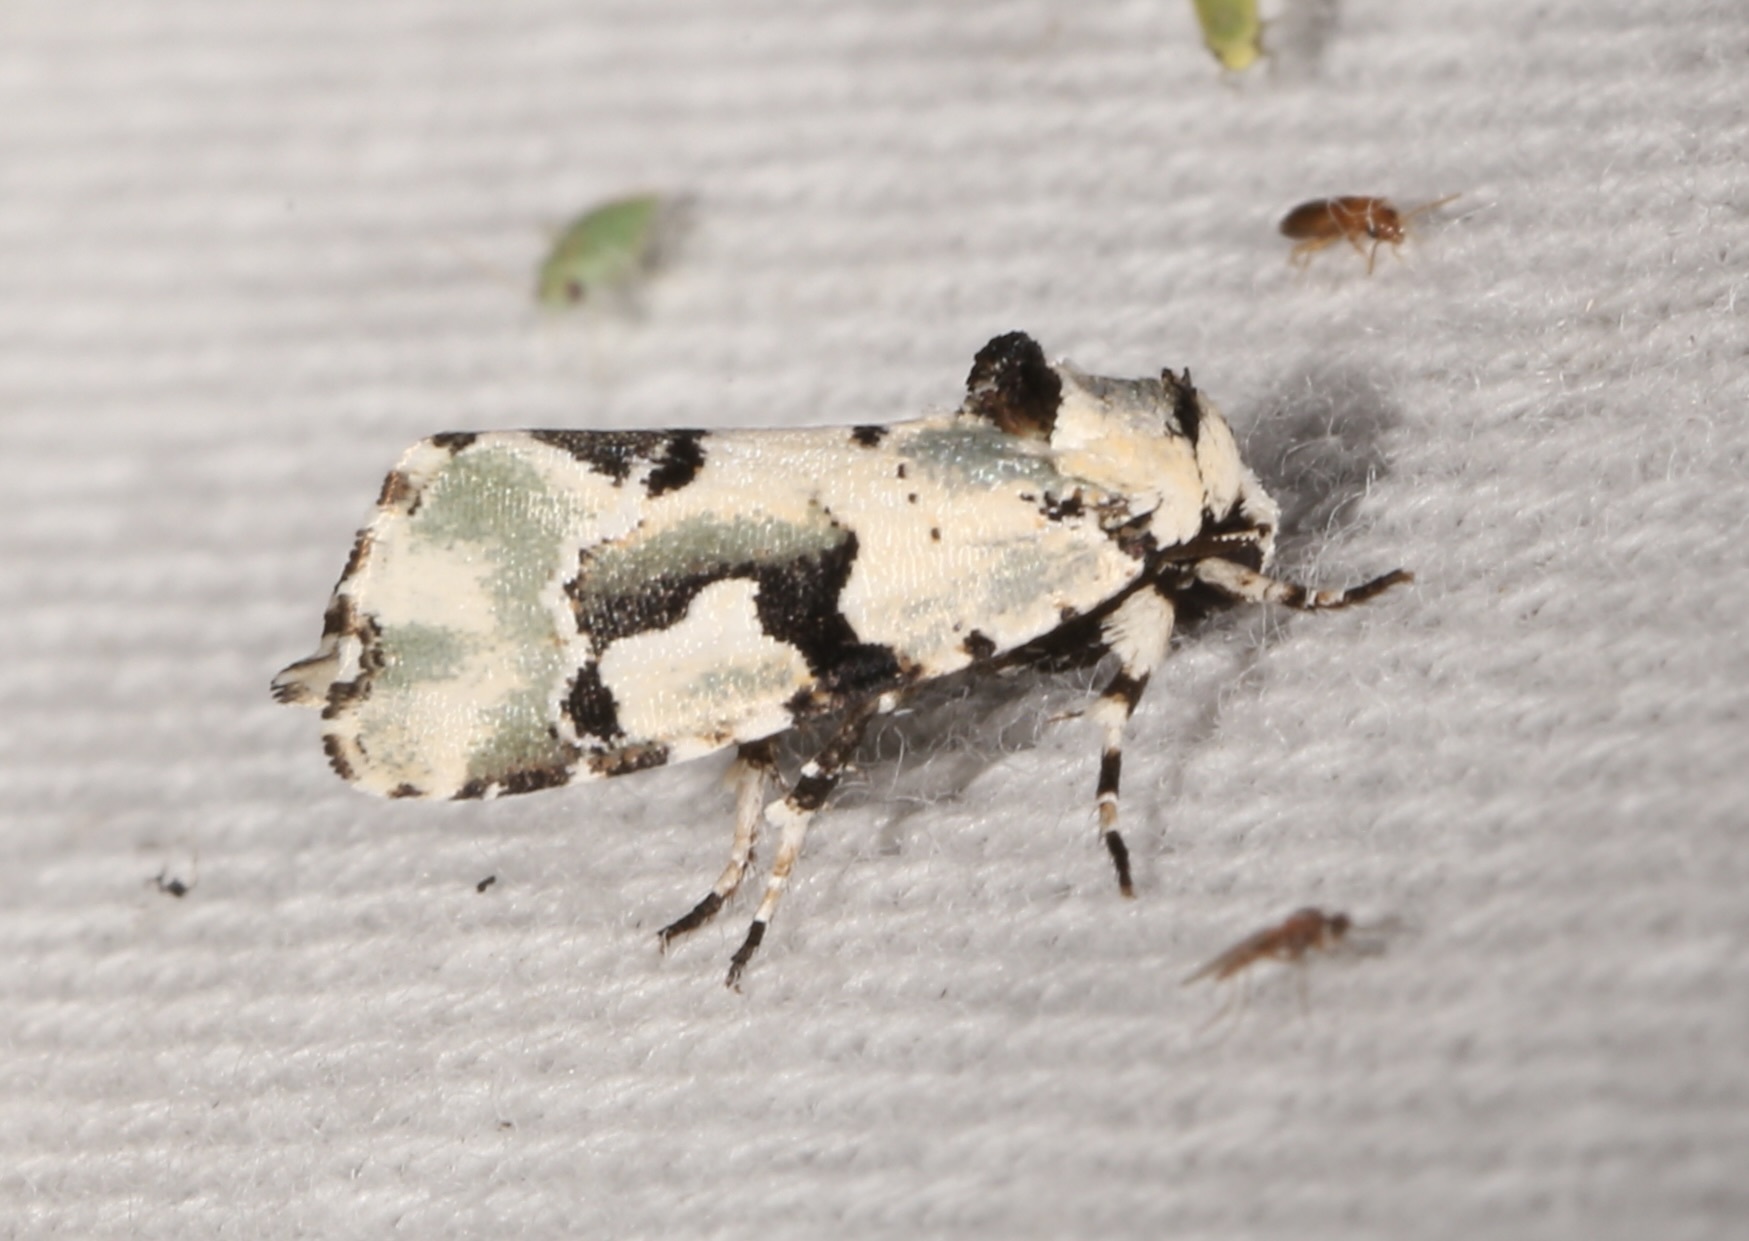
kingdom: Animalia
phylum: Arthropoda
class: Insecta
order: Lepidoptera
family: Noctuidae
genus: Emarginea
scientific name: Emarginea percara
